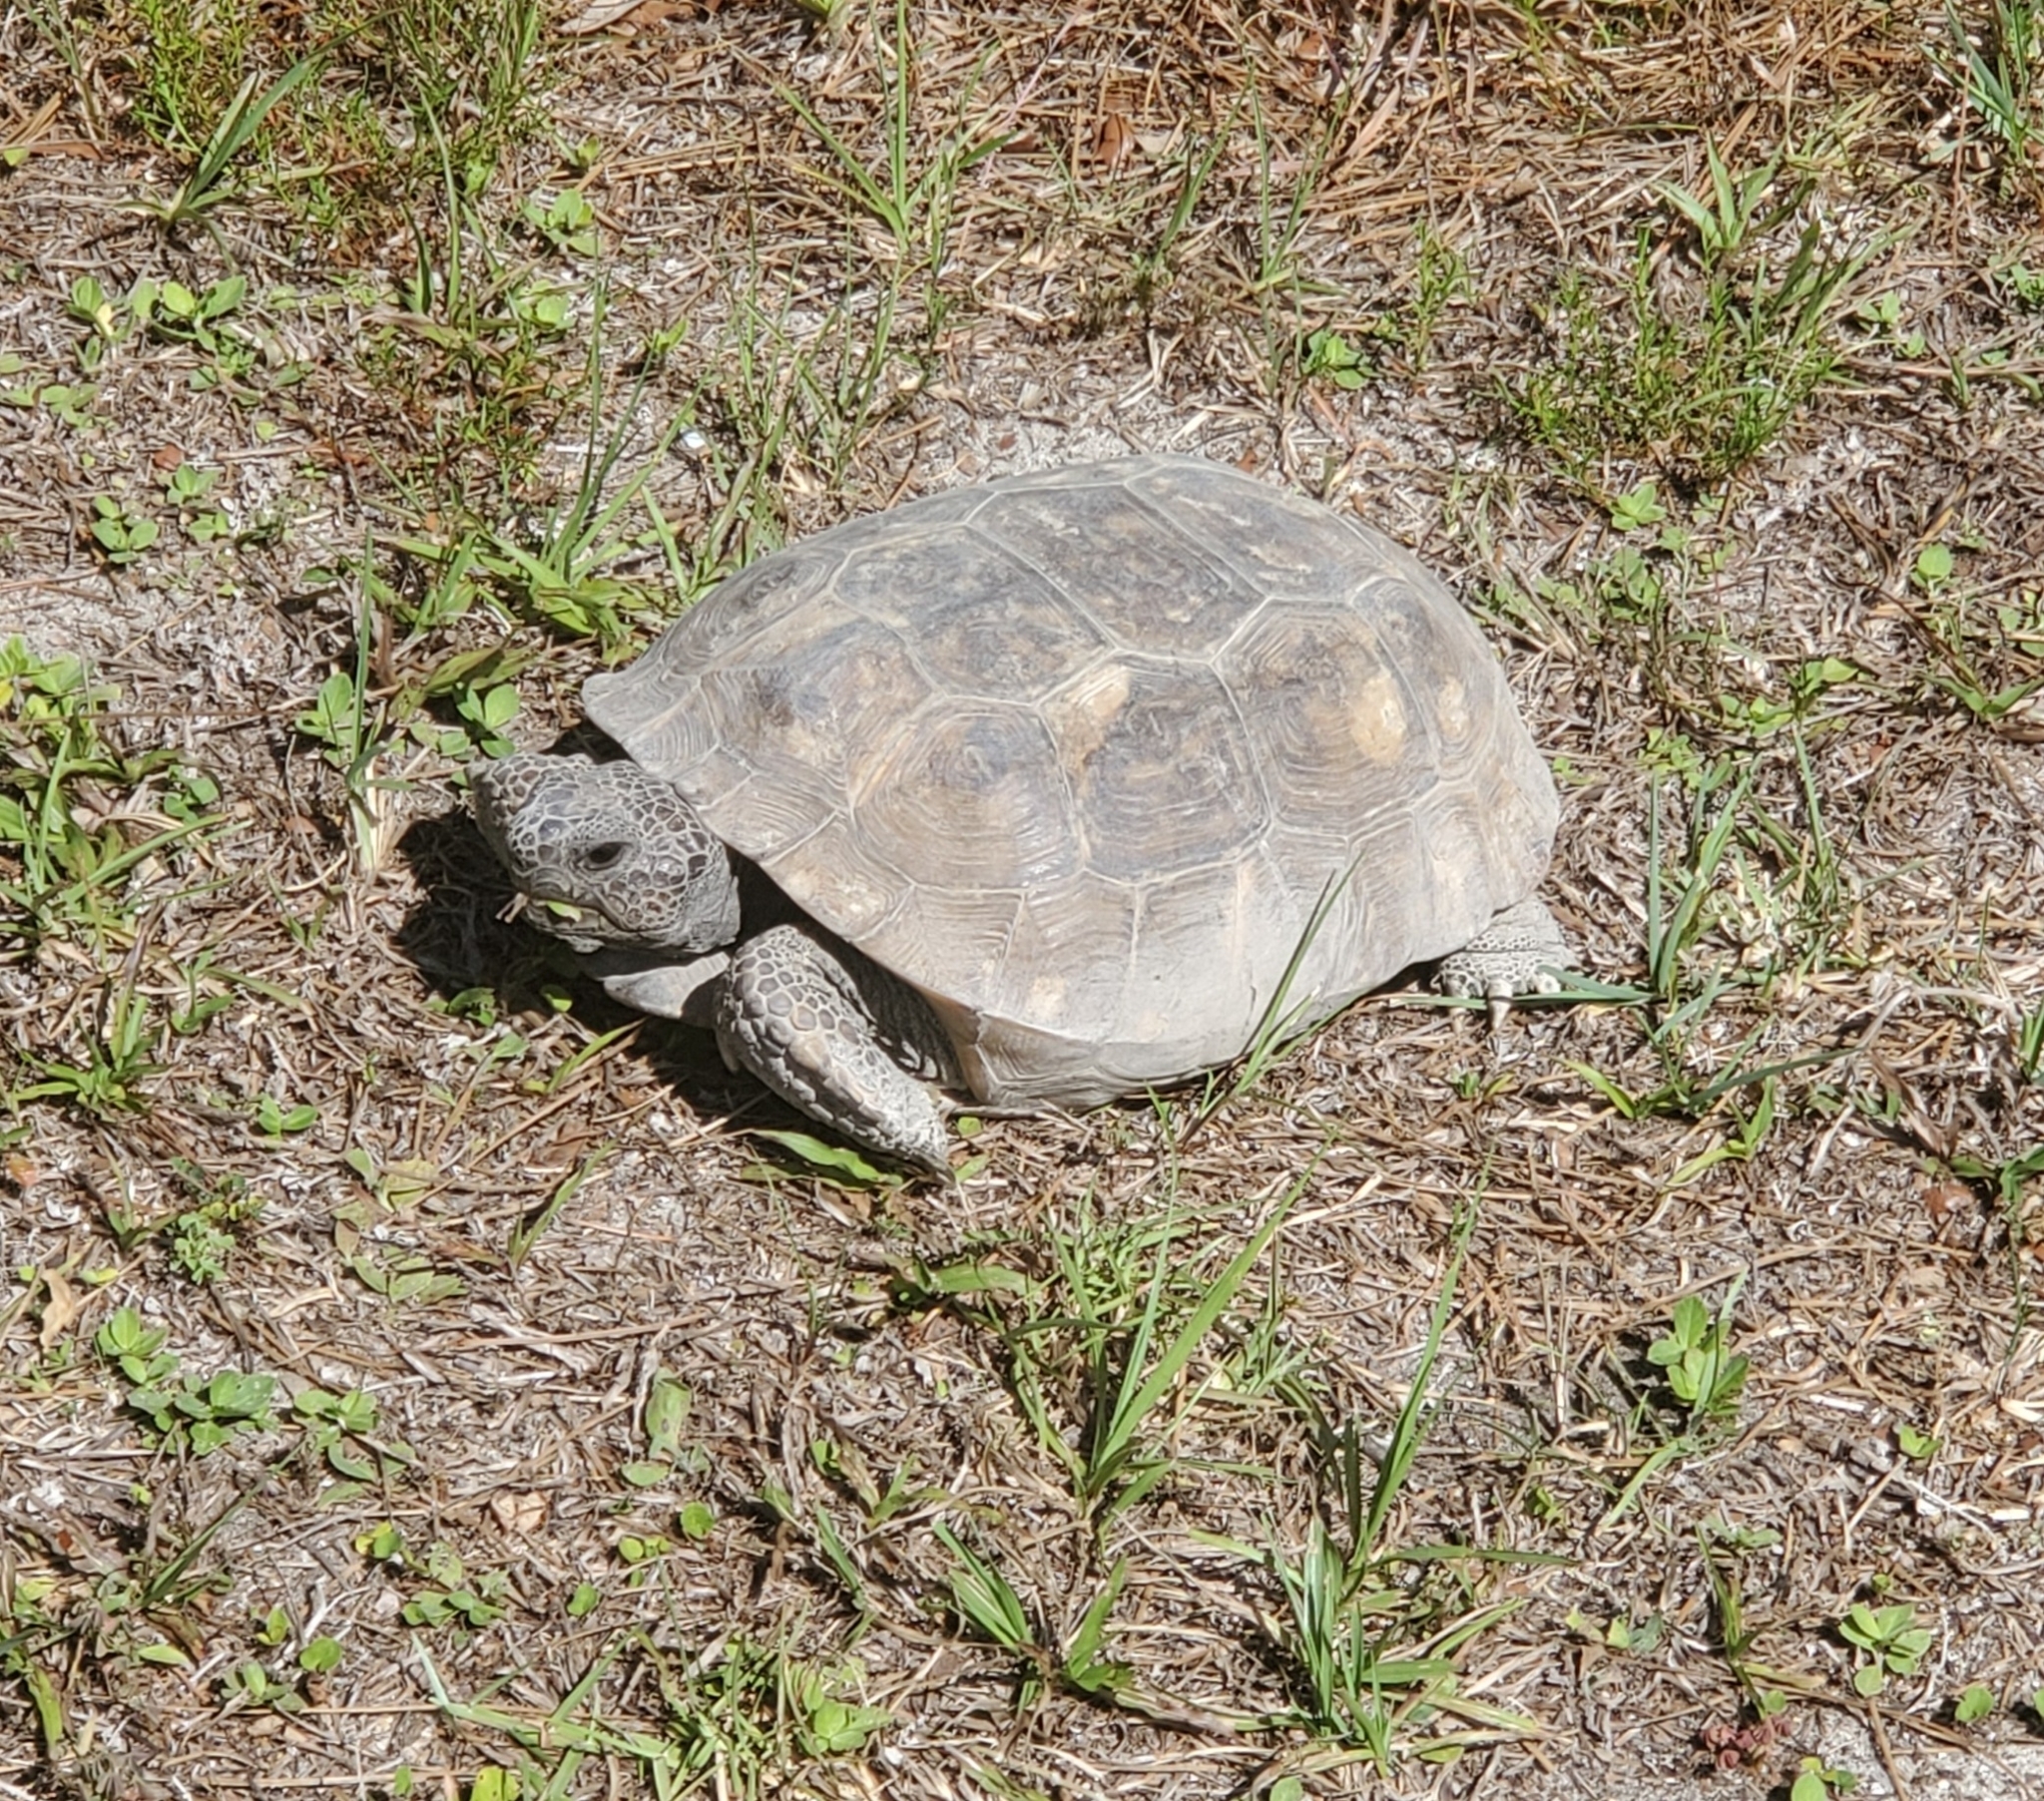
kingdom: Animalia
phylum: Chordata
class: Testudines
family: Testudinidae
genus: Gopherus
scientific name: Gopherus polyphemus
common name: Florida gopher tortoise
